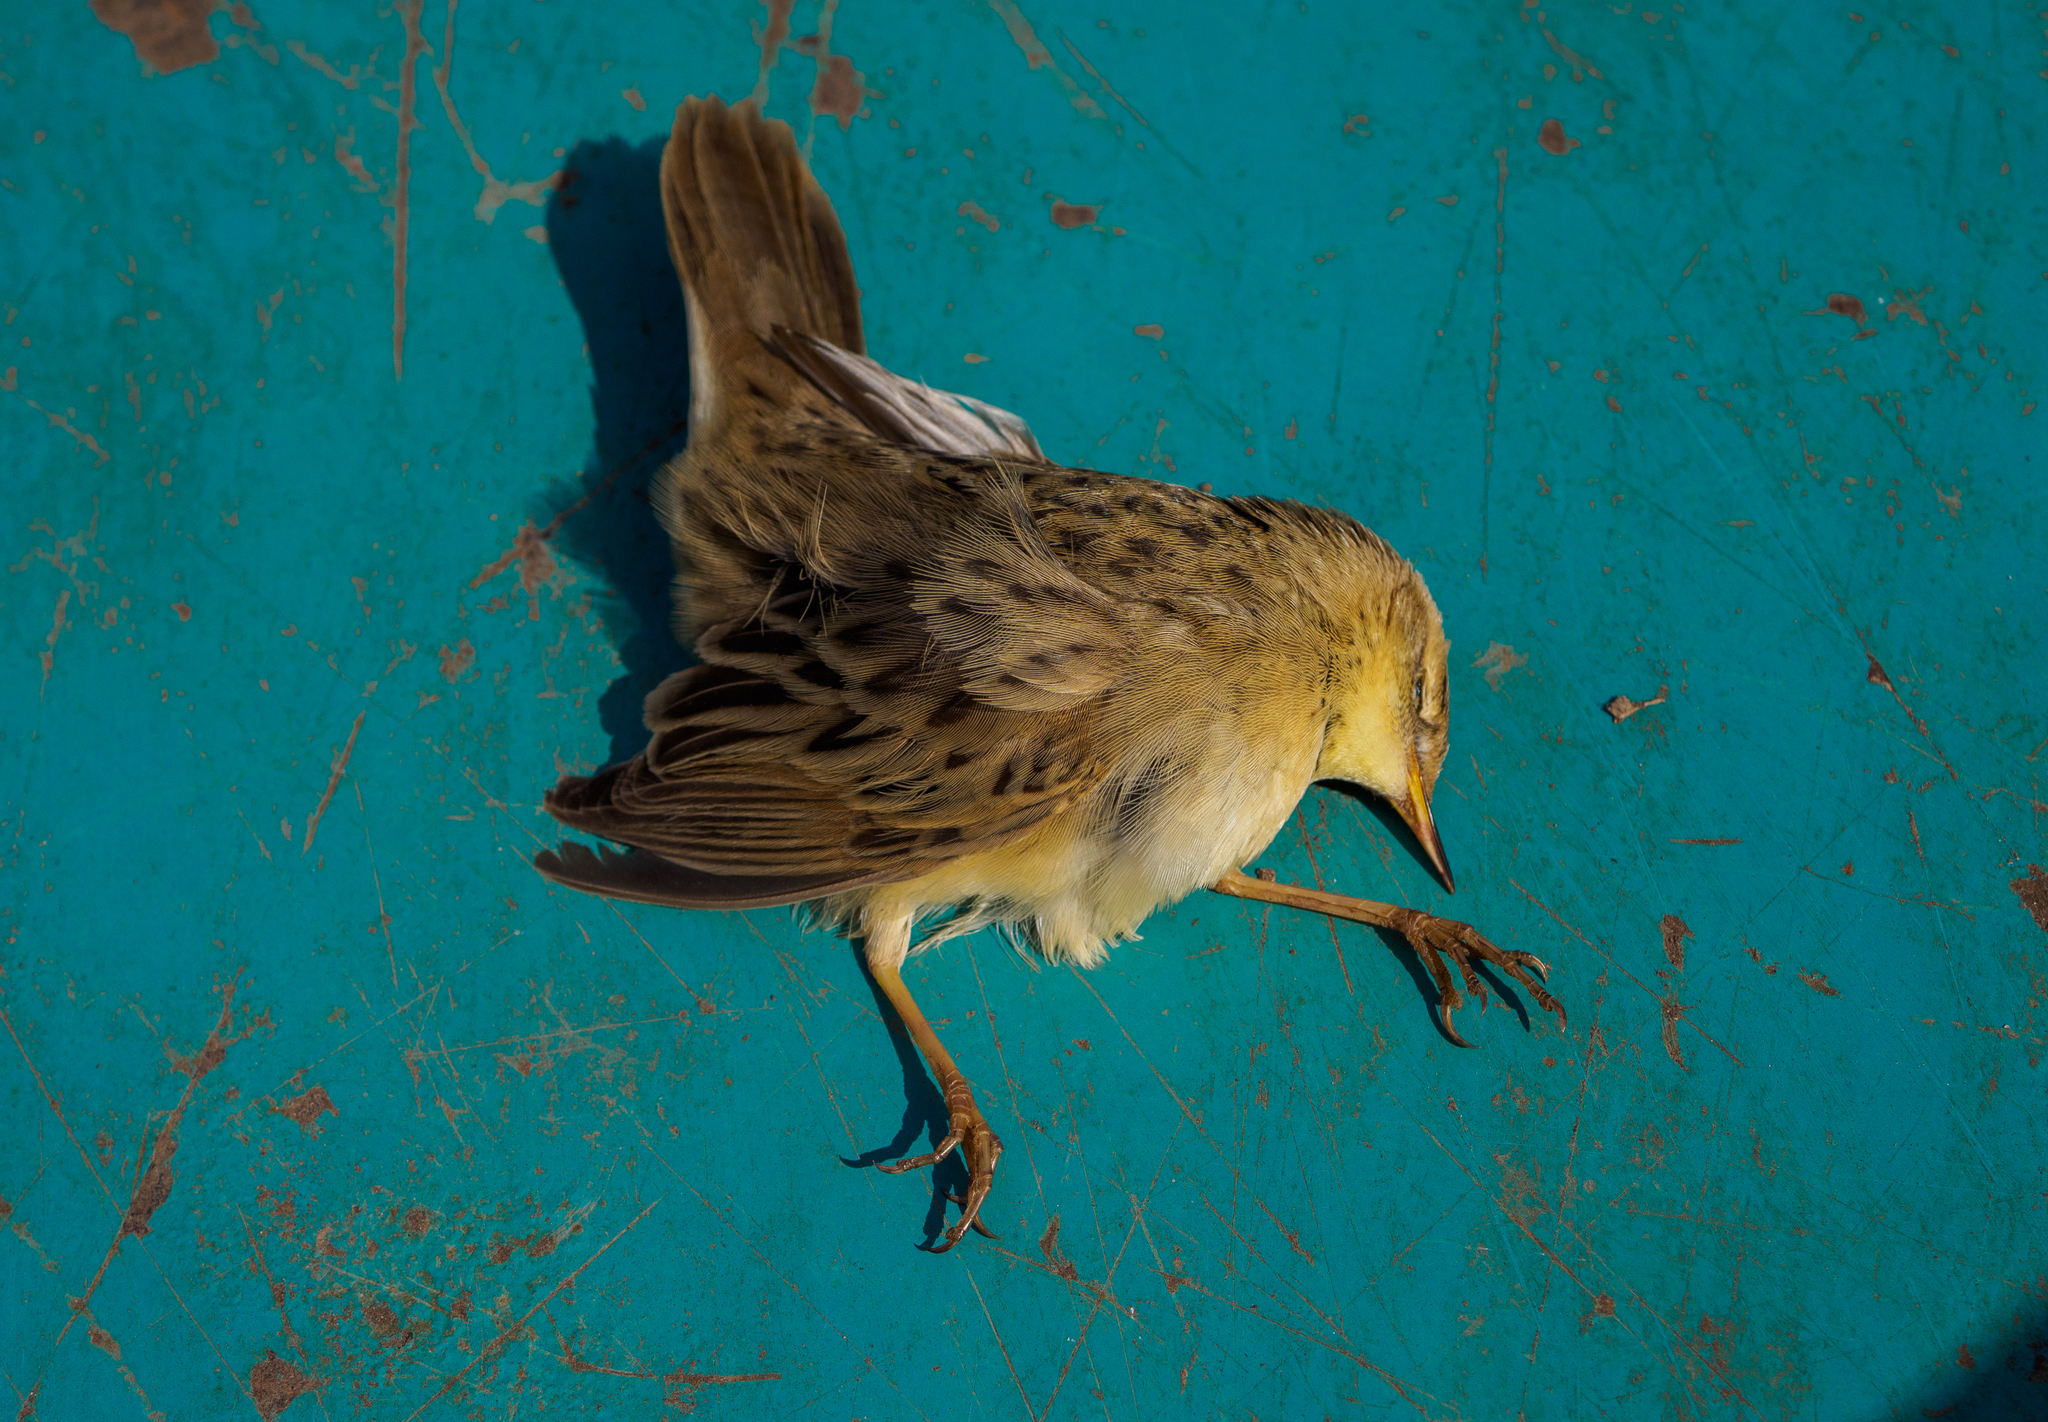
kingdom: Animalia
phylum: Chordata
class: Aves
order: Passeriformes
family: Locustellidae
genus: Locustella
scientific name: Locustella naevia
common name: Common grasshopper warbler
